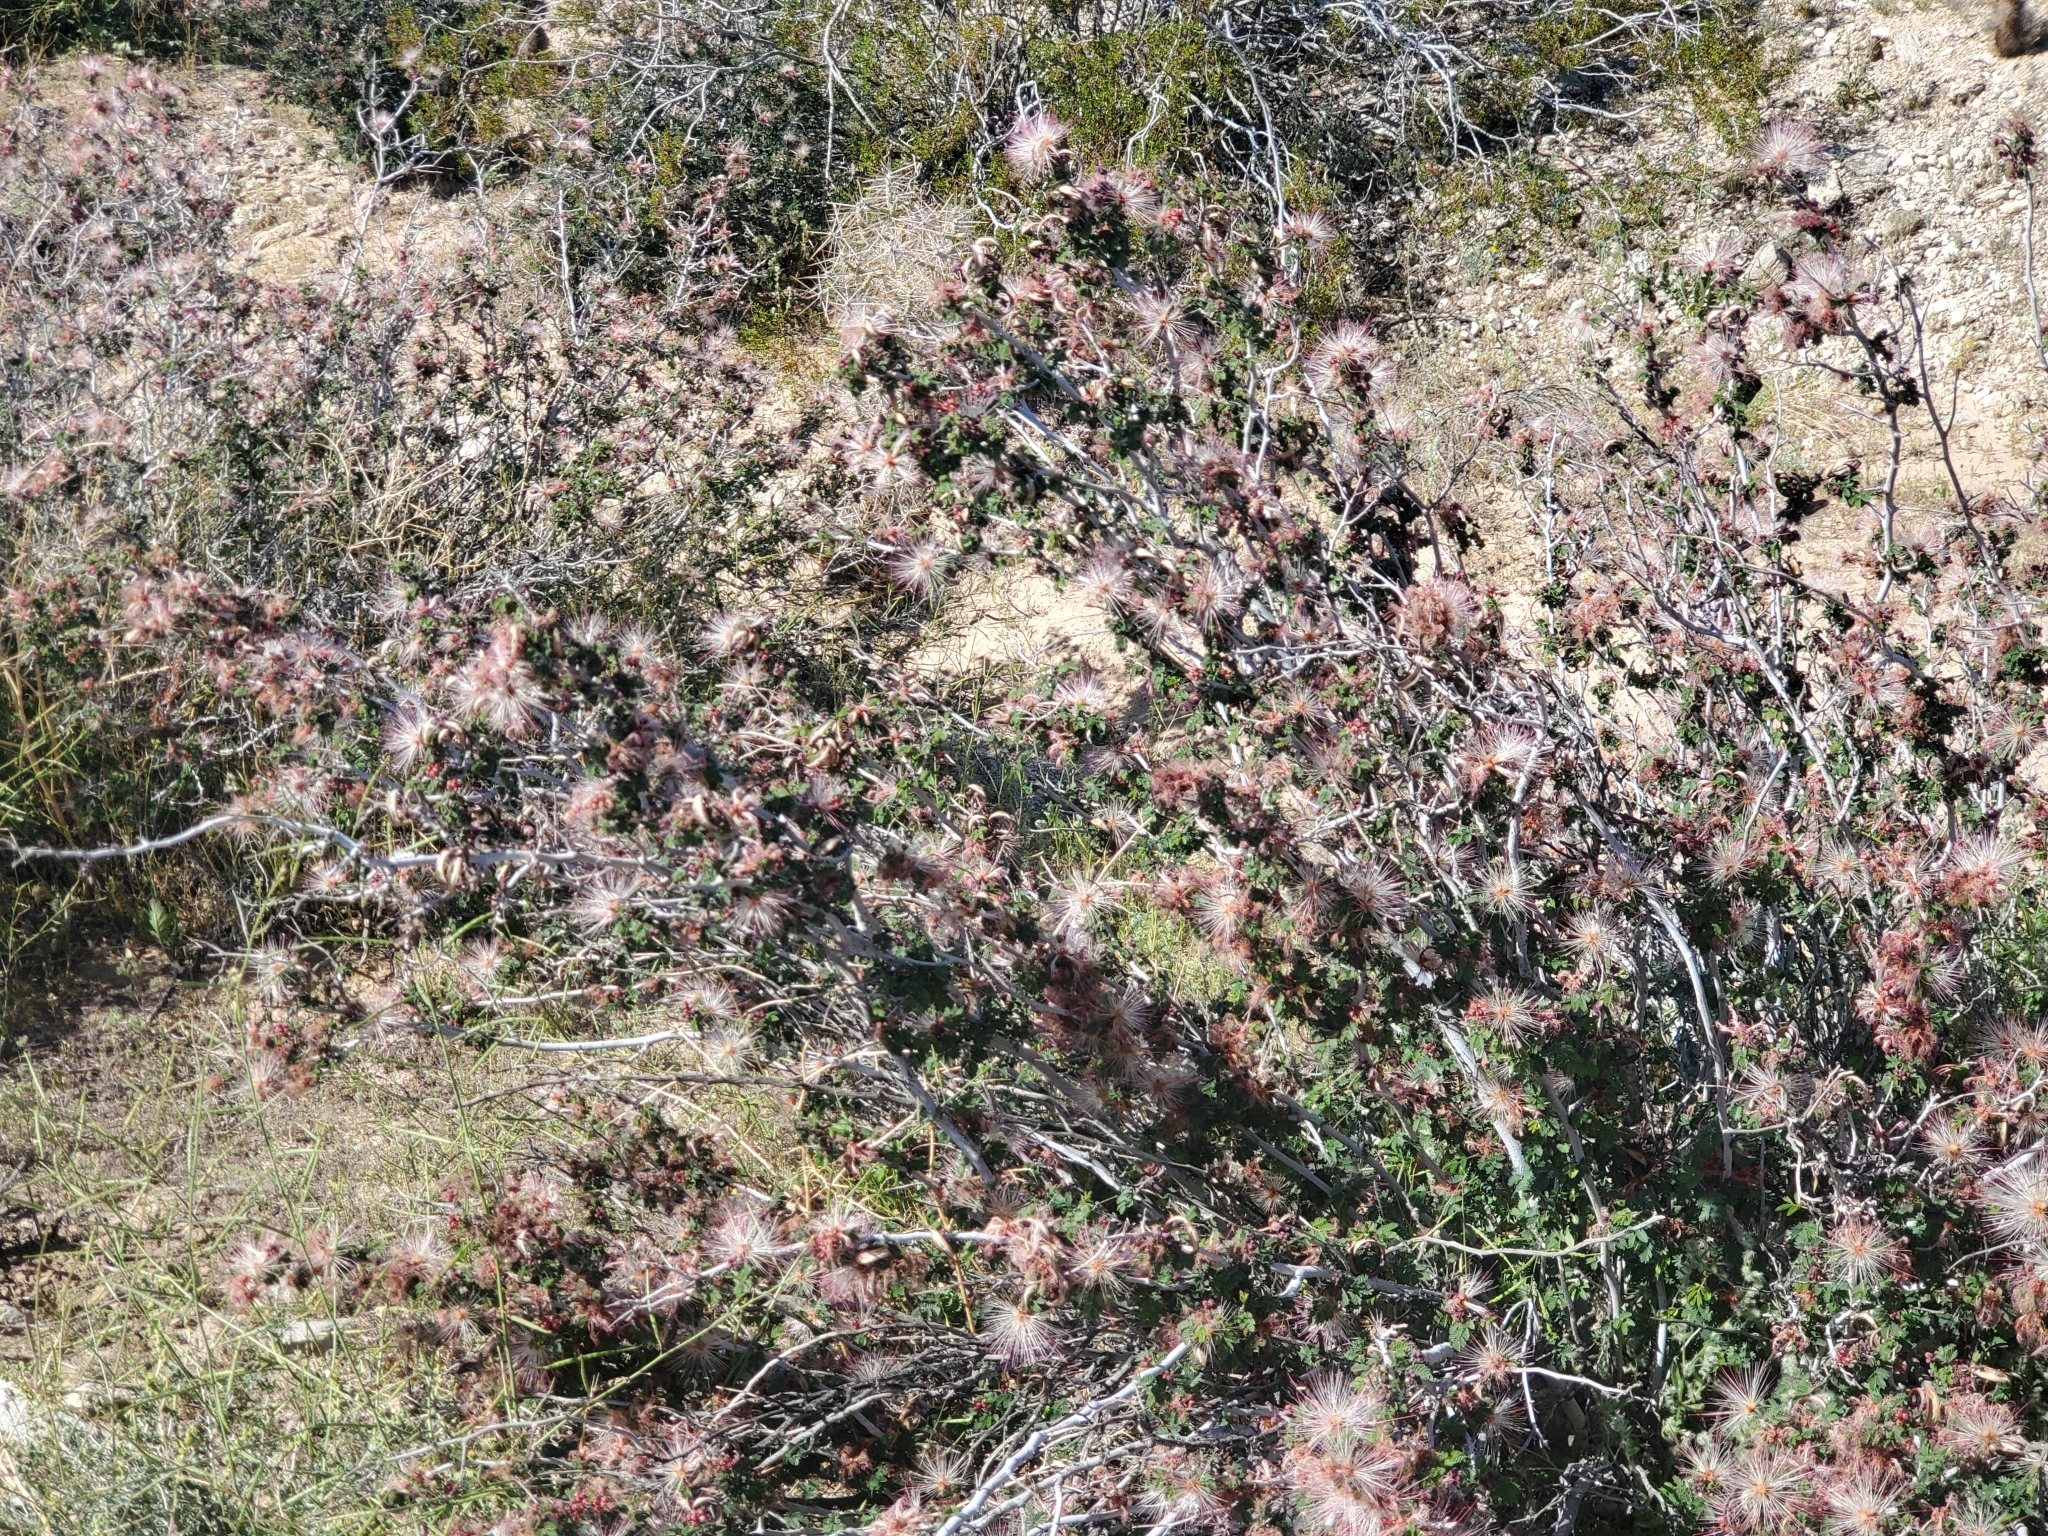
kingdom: Plantae
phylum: Tracheophyta
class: Magnoliopsida
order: Fabales
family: Fabaceae
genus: Calliandra
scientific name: Calliandra eriophylla
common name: Fairy-duster
